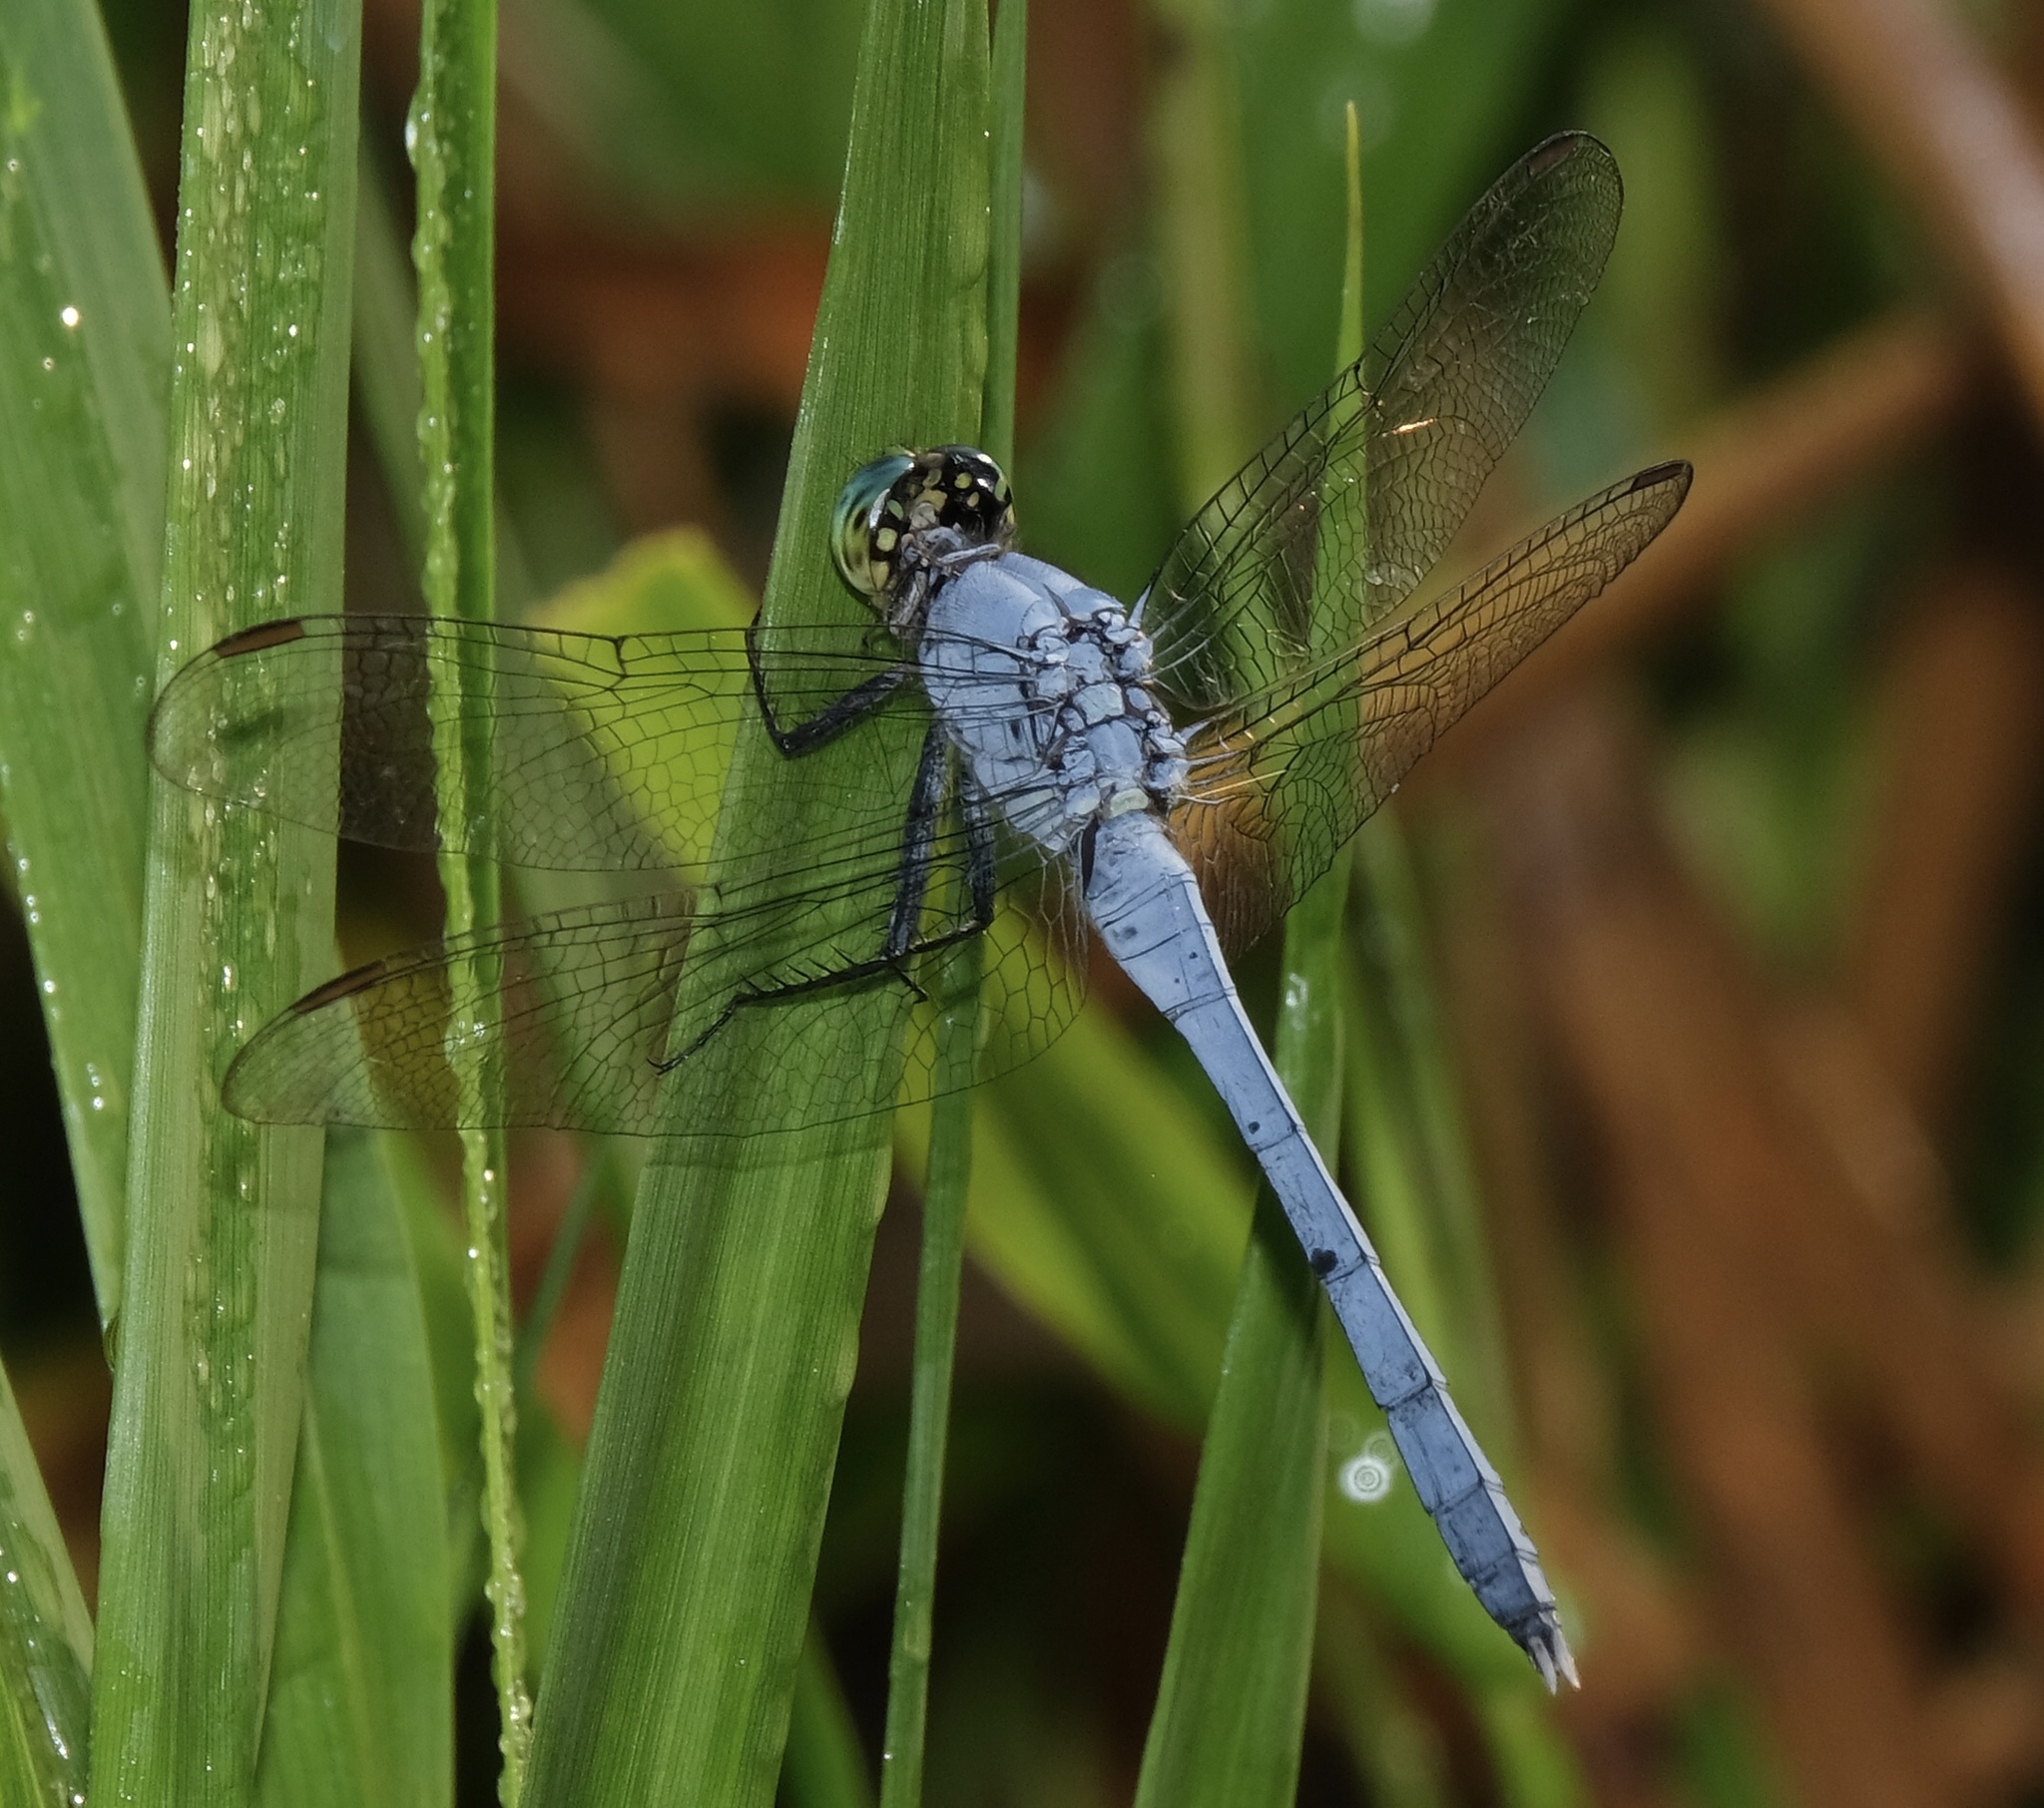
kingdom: Animalia
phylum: Arthropoda
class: Insecta
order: Odonata
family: Libellulidae
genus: Erythemis
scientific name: Erythemis simplicicollis
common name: Eastern pondhawk
